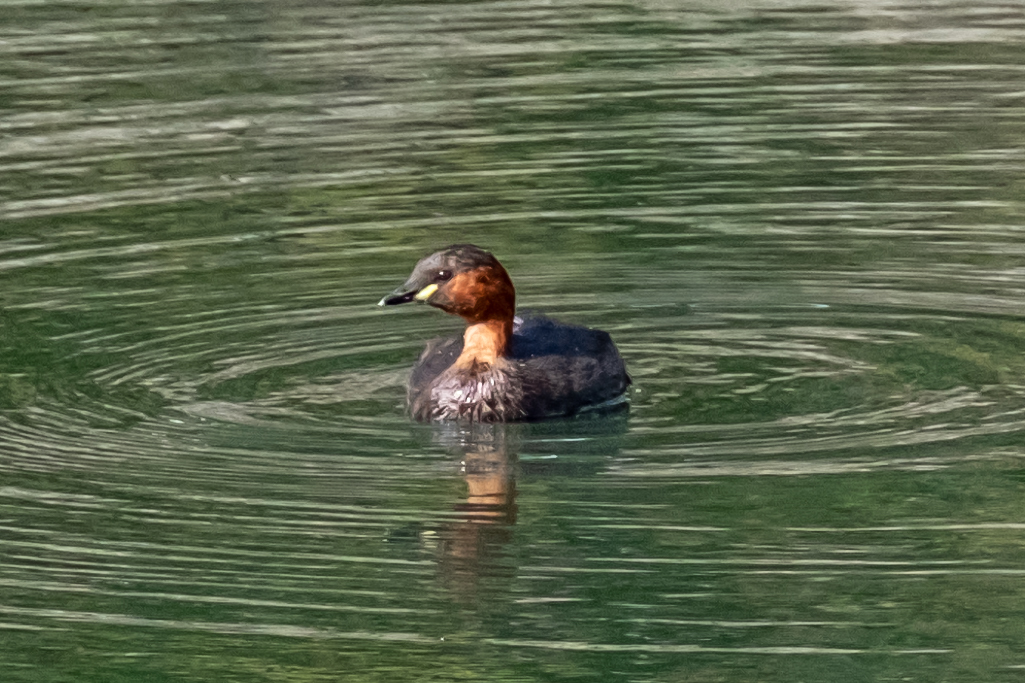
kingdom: Animalia
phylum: Chordata
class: Aves
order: Podicipediformes
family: Podicipedidae
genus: Tachybaptus
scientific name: Tachybaptus ruficollis
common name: Little grebe
